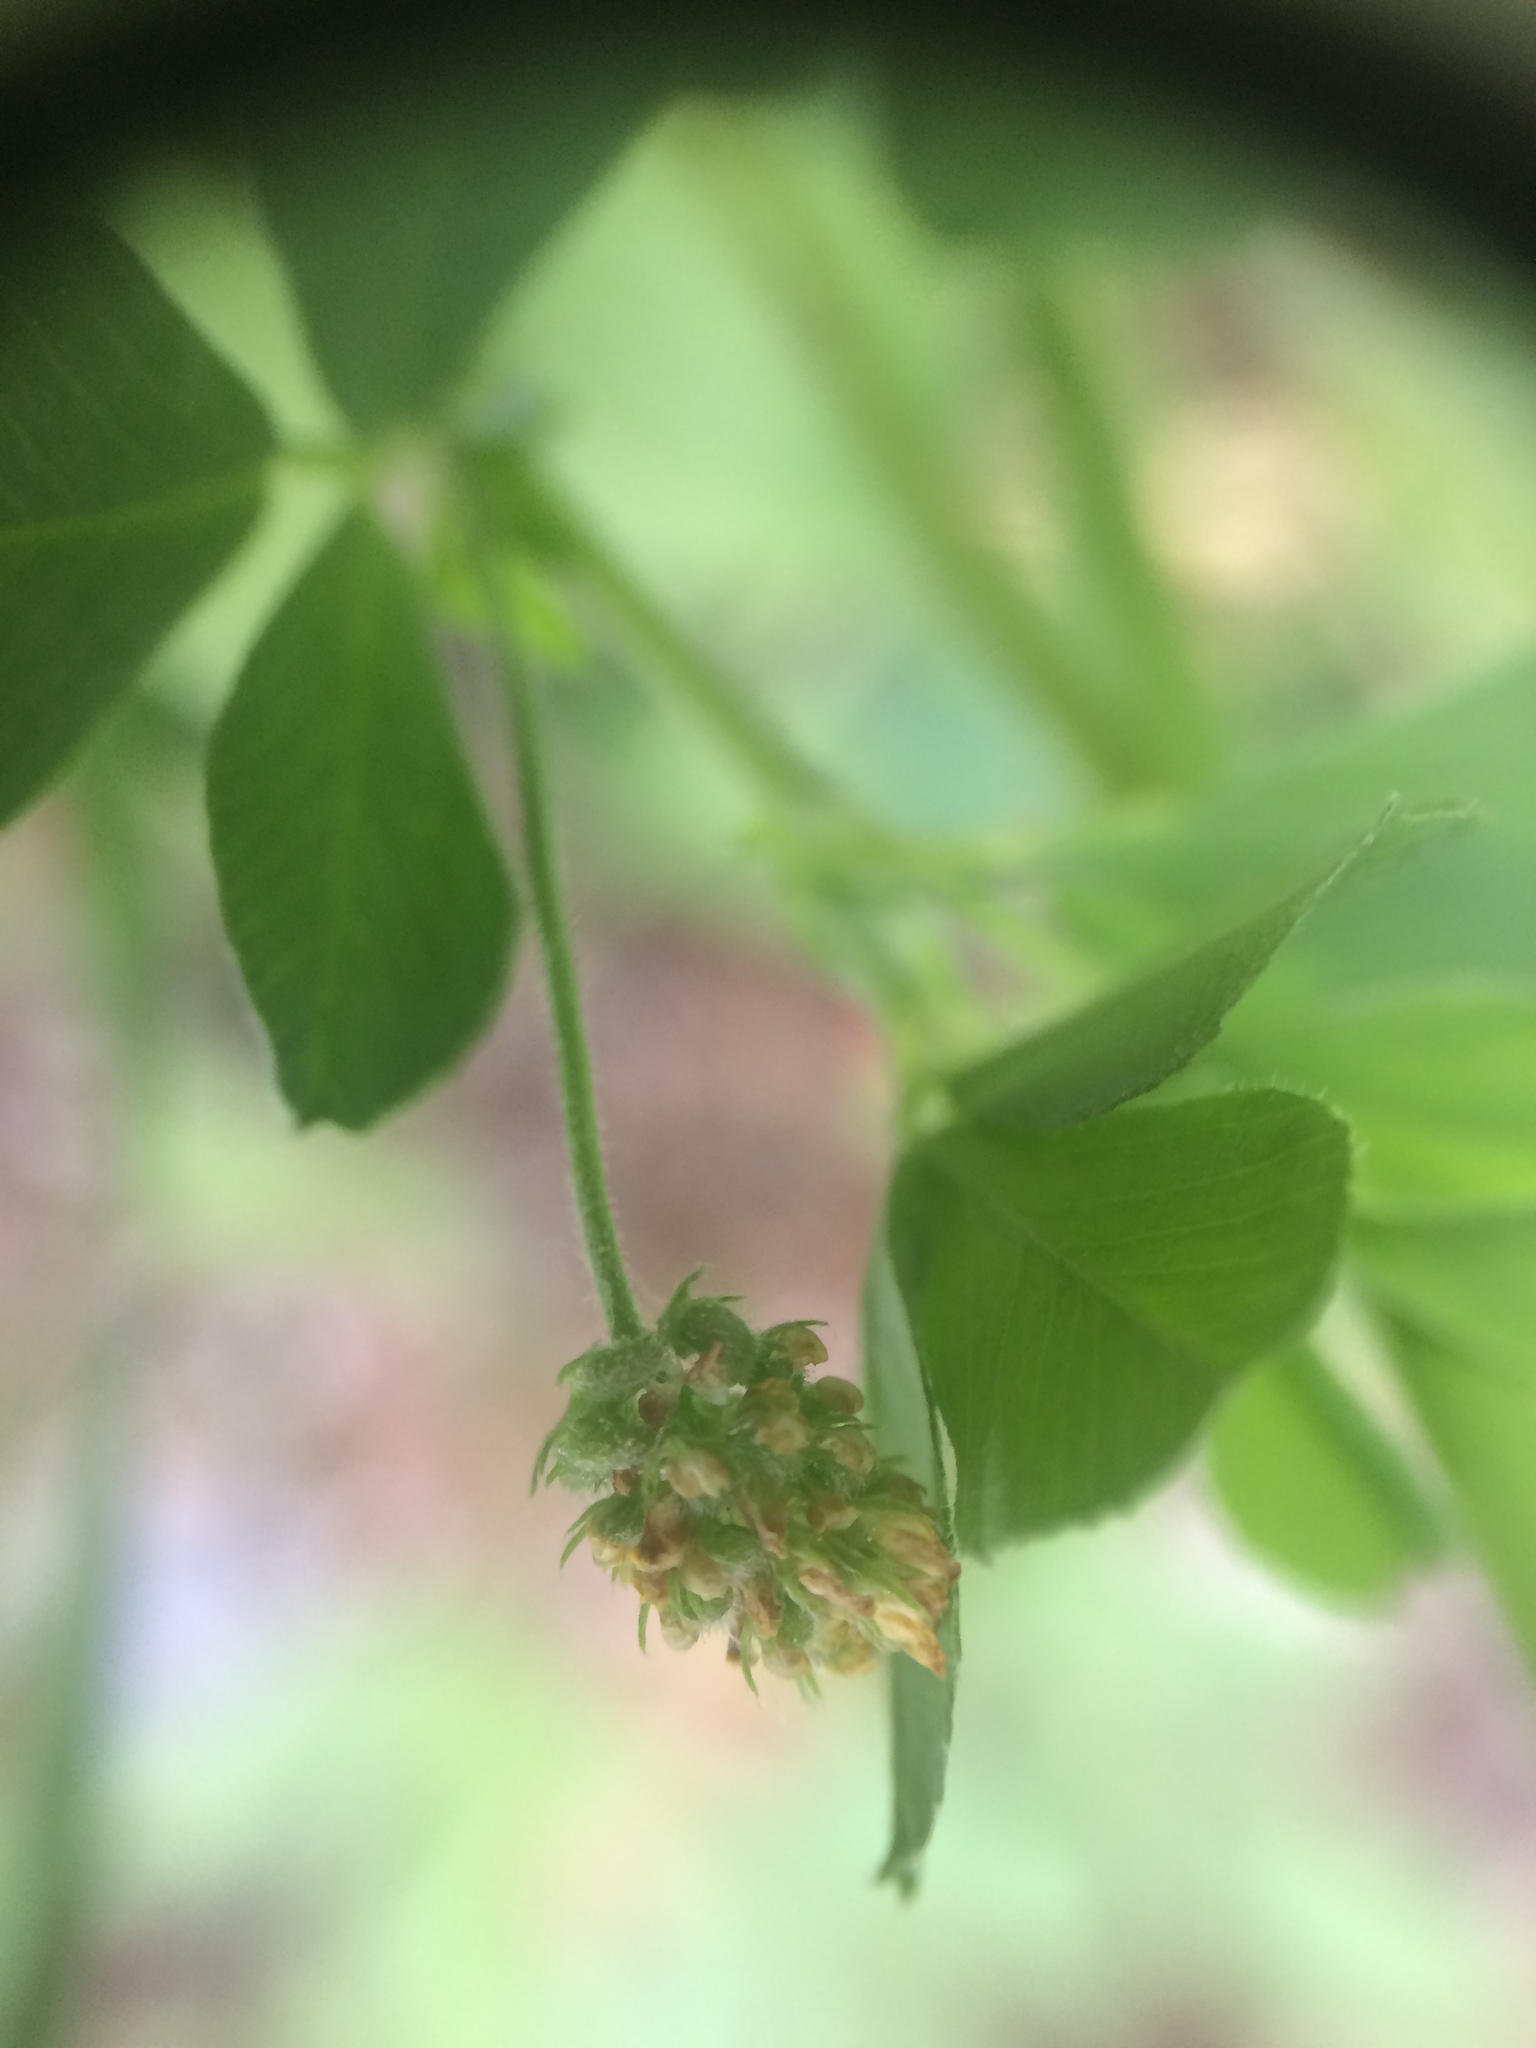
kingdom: Plantae
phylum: Tracheophyta
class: Magnoliopsida
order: Fabales
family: Fabaceae
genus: Medicago
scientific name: Medicago lupulina
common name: Black medick
